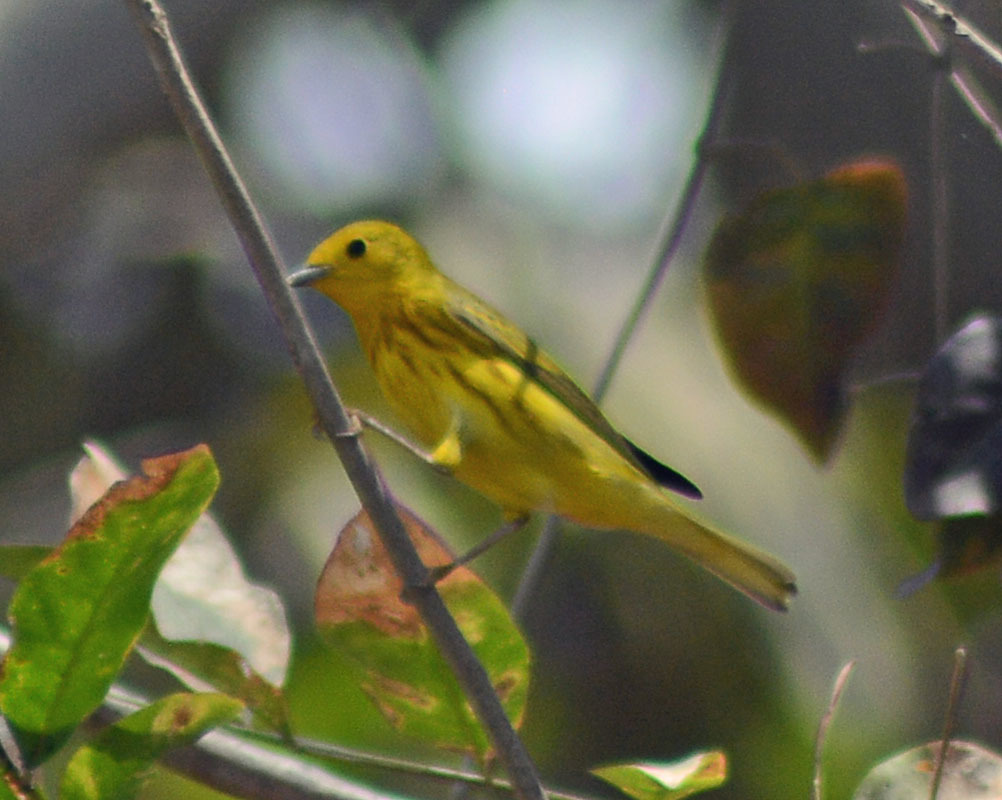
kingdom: Animalia
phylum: Chordata
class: Aves
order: Passeriformes
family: Parulidae
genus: Setophaga
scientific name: Setophaga petechia
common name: Yellow warbler
